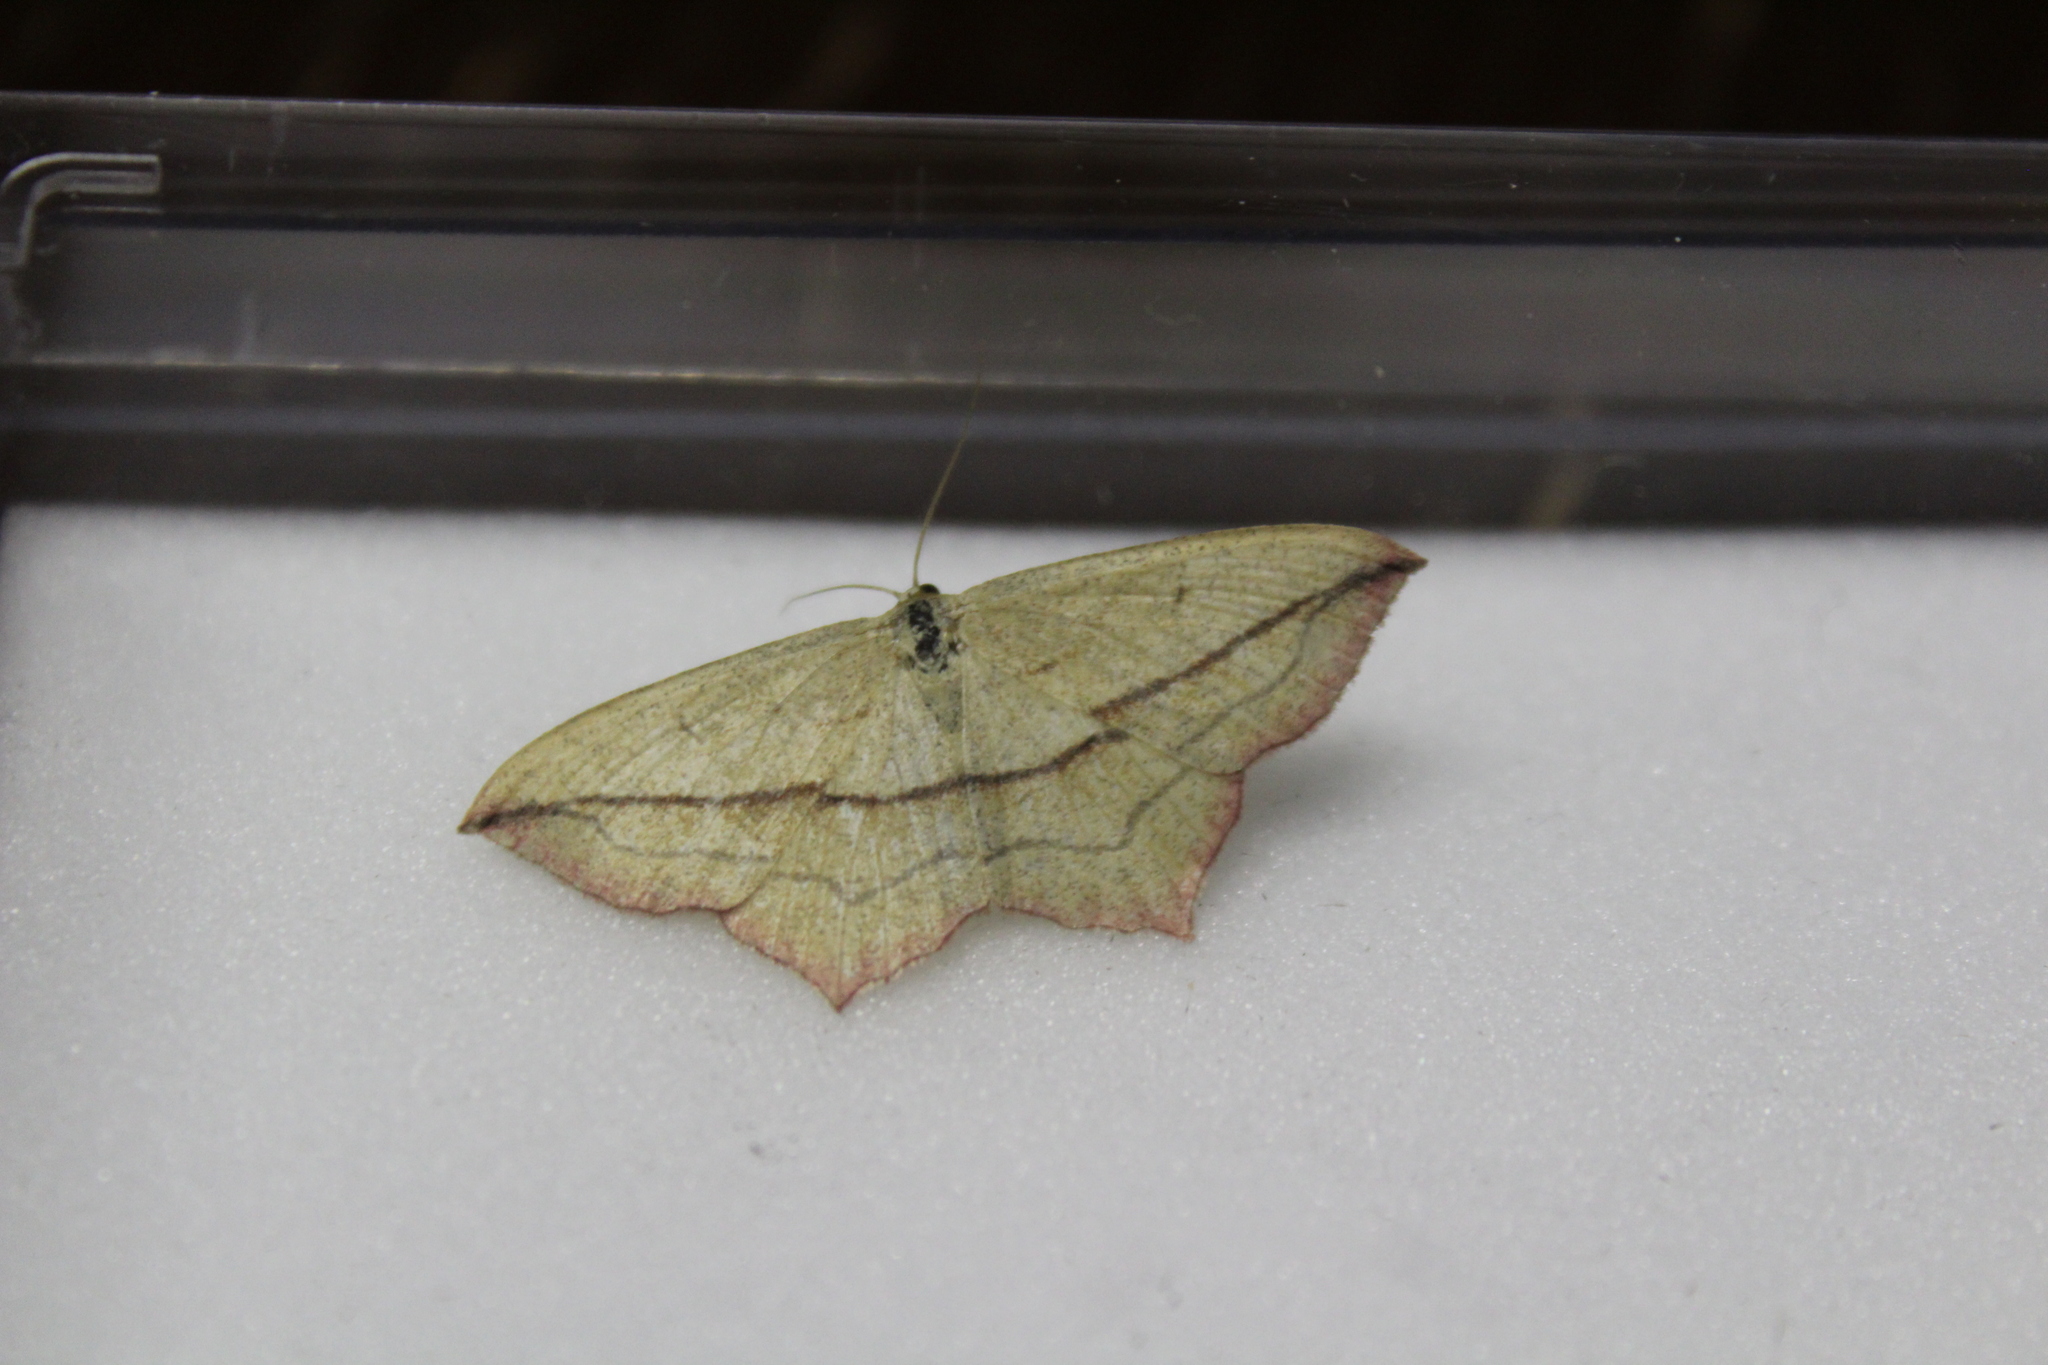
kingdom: Animalia
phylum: Arthropoda
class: Insecta
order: Lepidoptera
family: Geometridae
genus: Timandra
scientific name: Timandra comae
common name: Blood-vein
